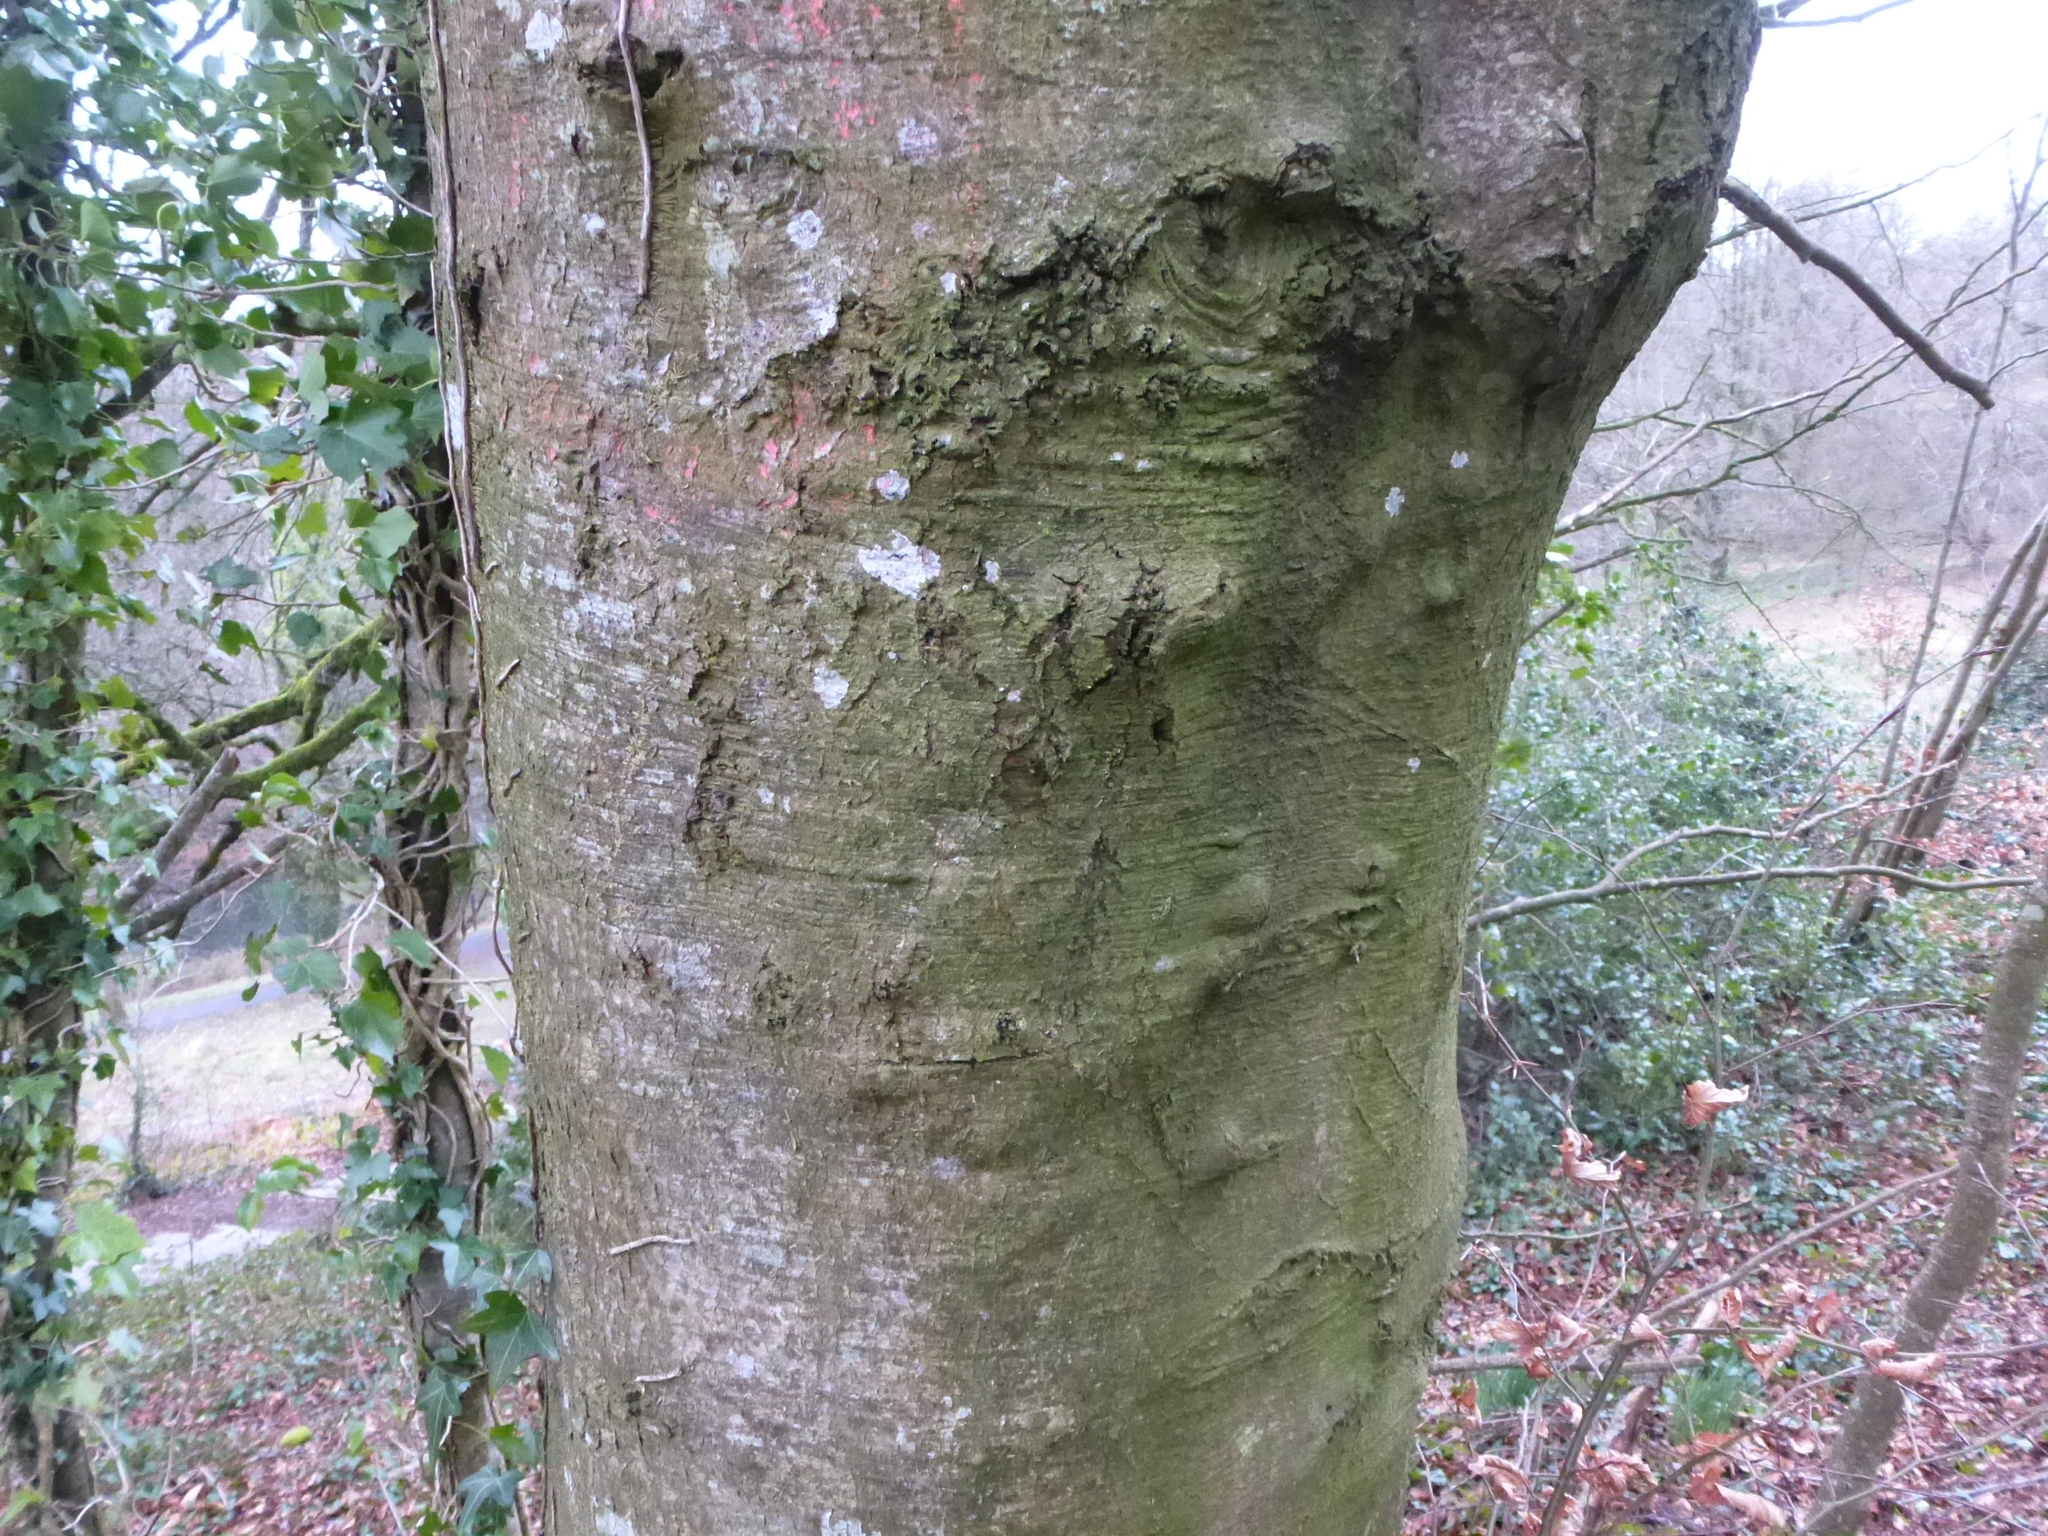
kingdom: Plantae
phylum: Tracheophyta
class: Magnoliopsida
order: Fagales
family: Fagaceae
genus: Fagus
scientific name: Fagus sylvatica
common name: Beech
